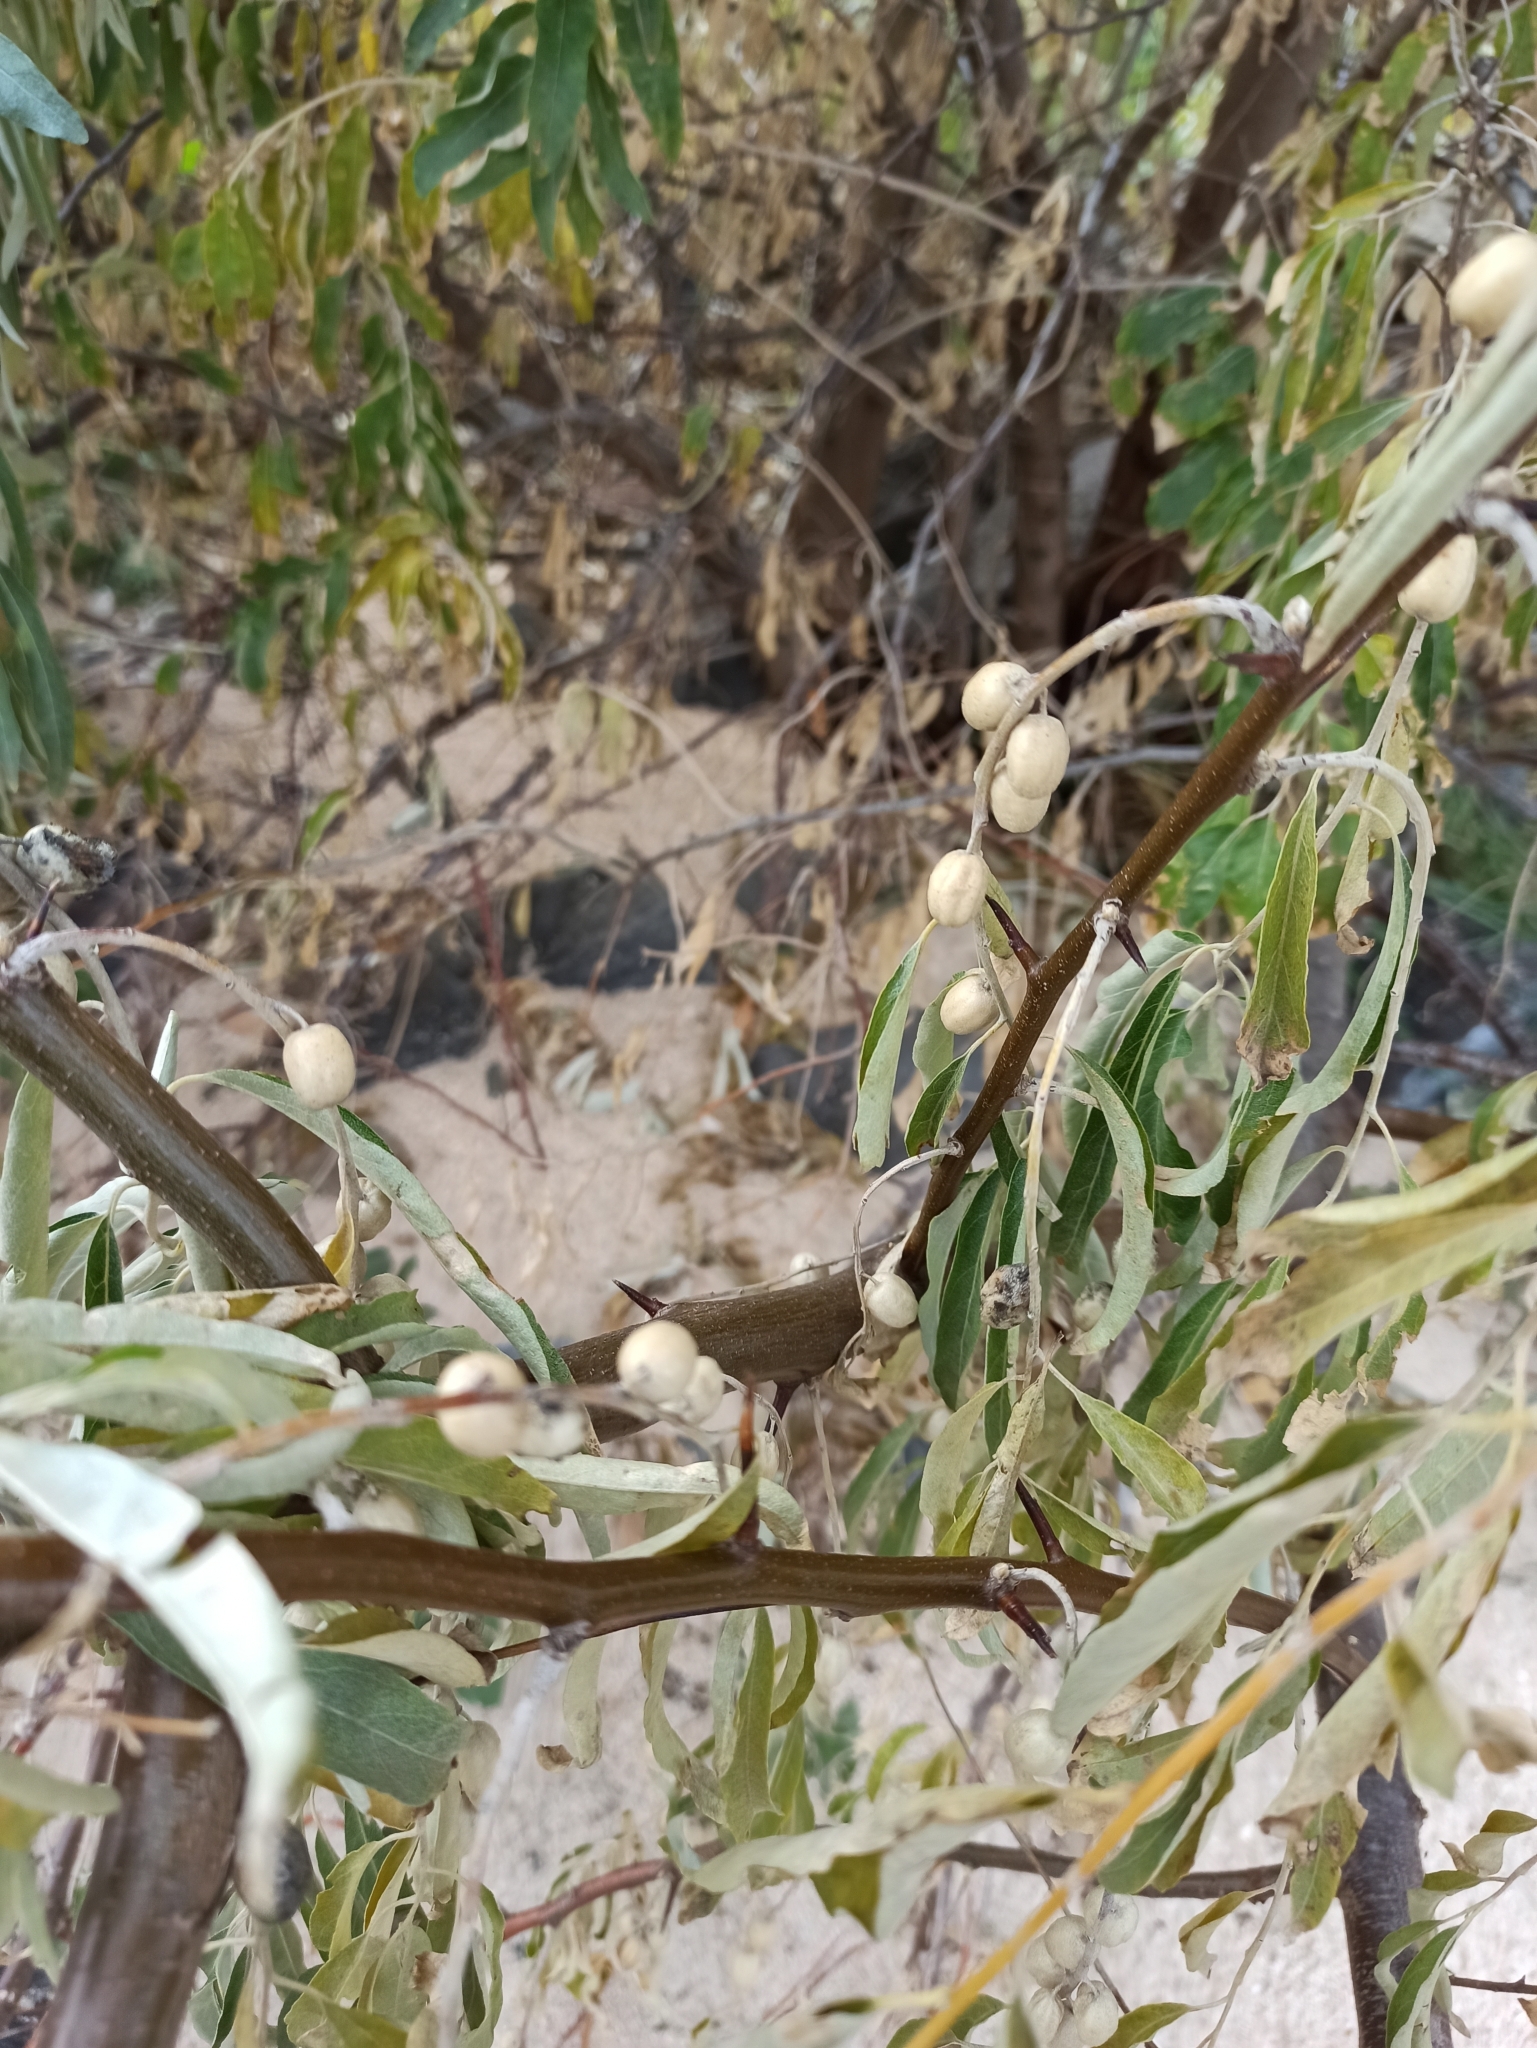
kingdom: Plantae
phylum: Tracheophyta
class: Magnoliopsida
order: Rosales
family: Elaeagnaceae
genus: Elaeagnus
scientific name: Elaeagnus angustifolia
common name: Russian olive
